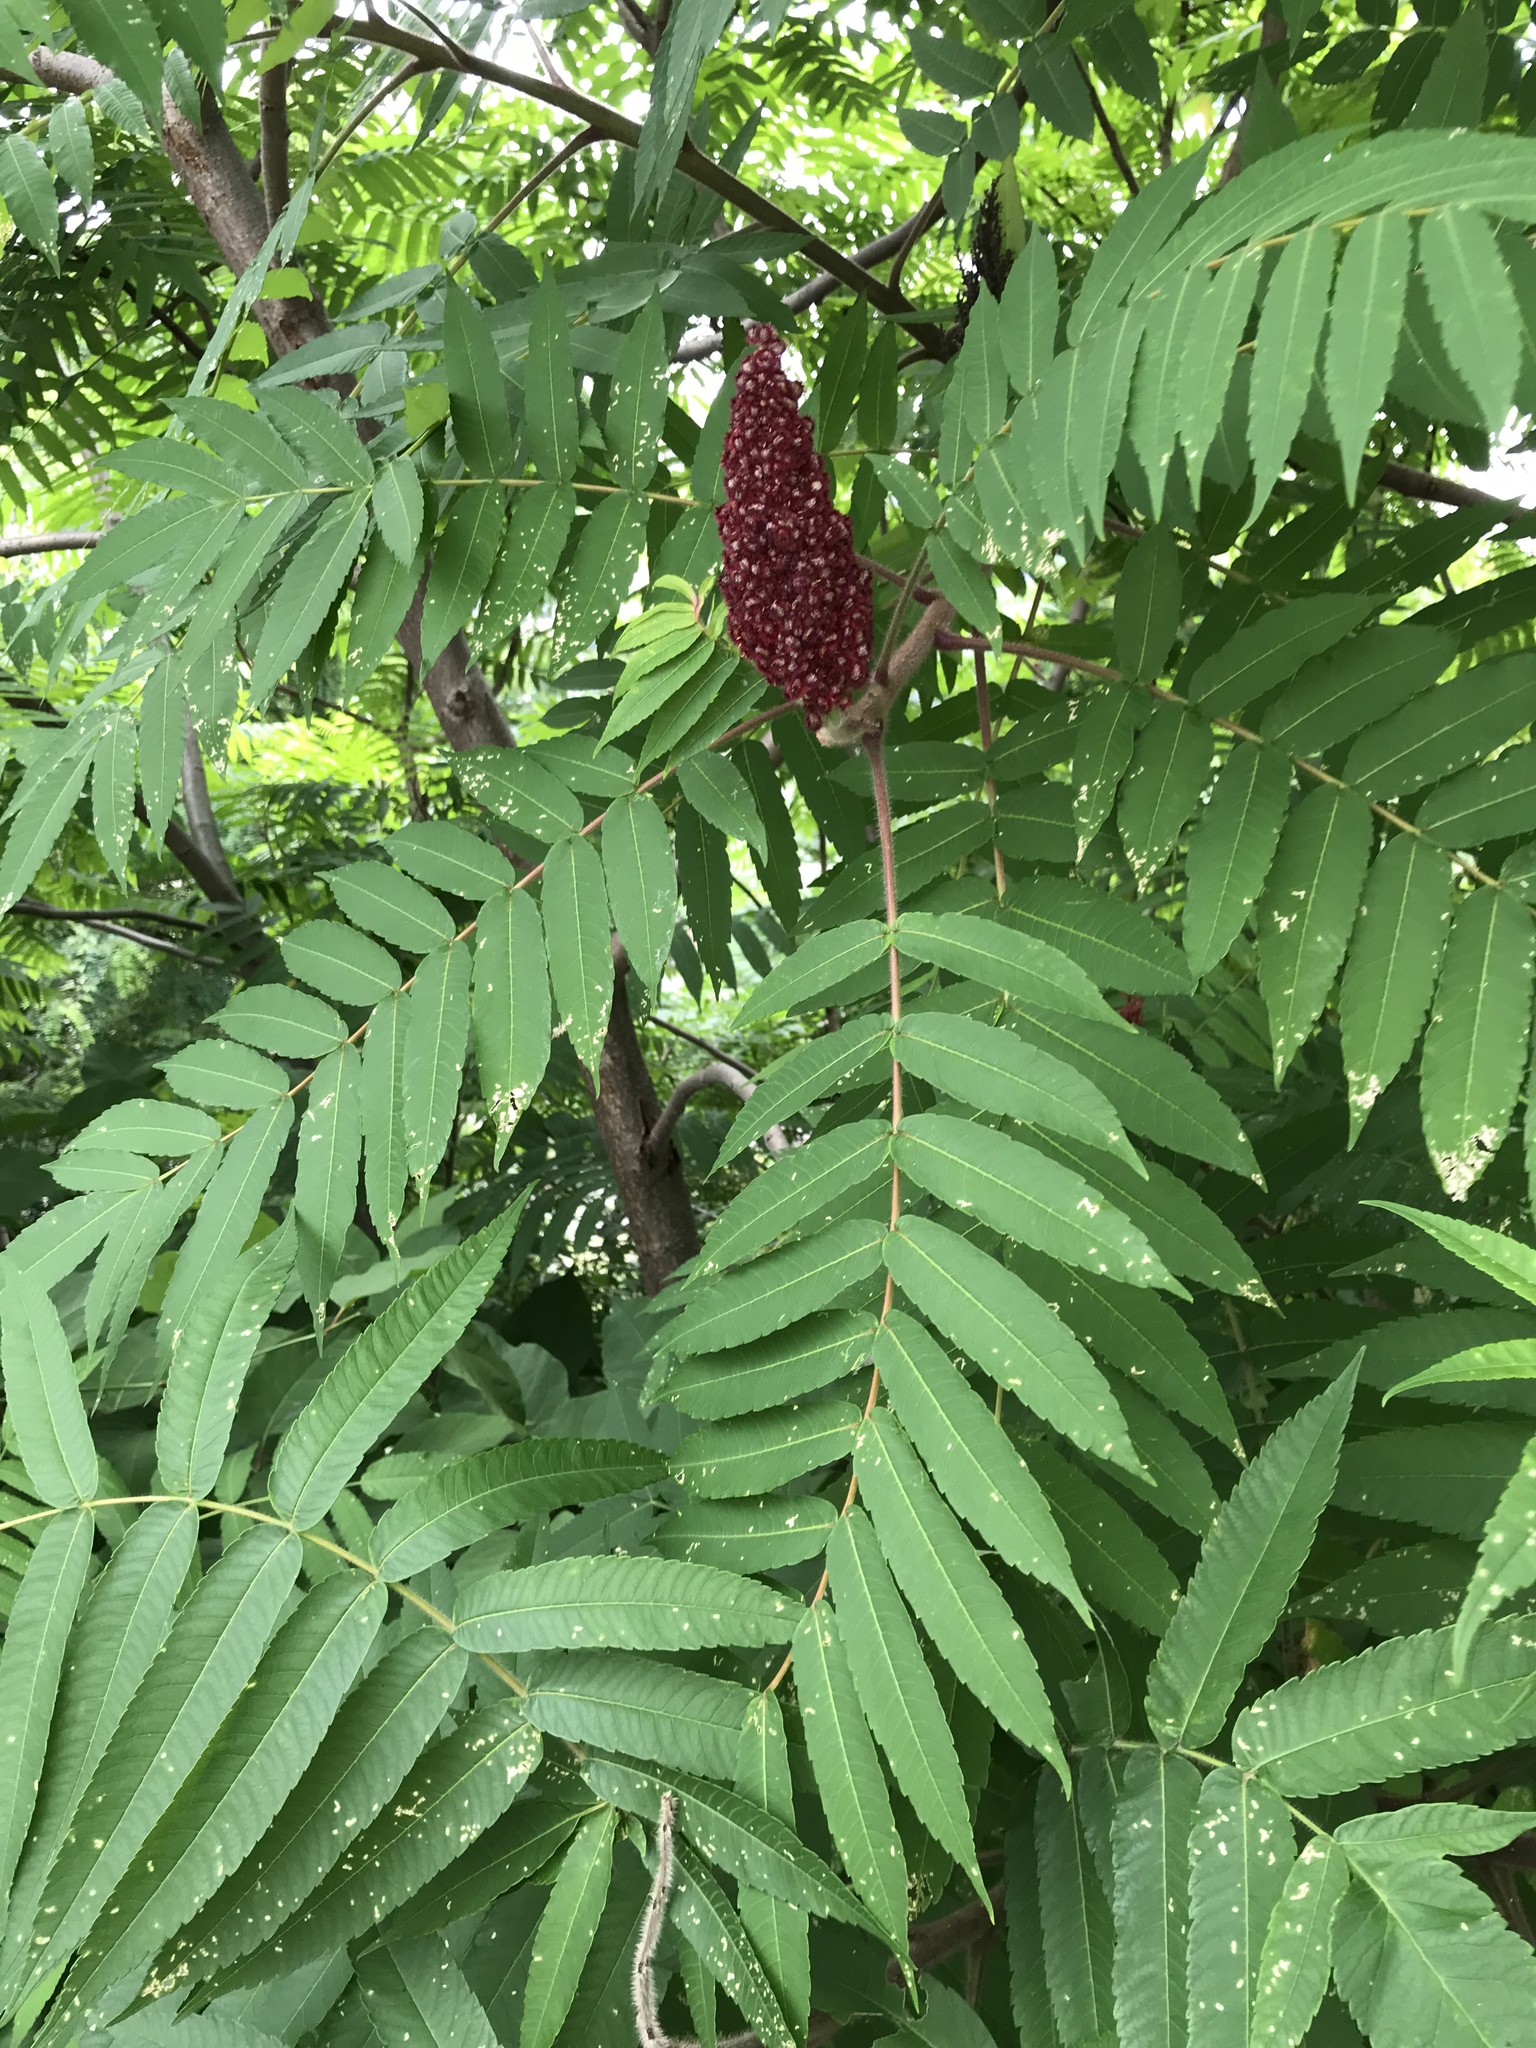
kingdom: Plantae
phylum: Tracheophyta
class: Magnoliopsida
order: Sapindales
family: Anacardiaceae
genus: Rhus
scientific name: Rhus typhina
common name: Staghorn sumac
